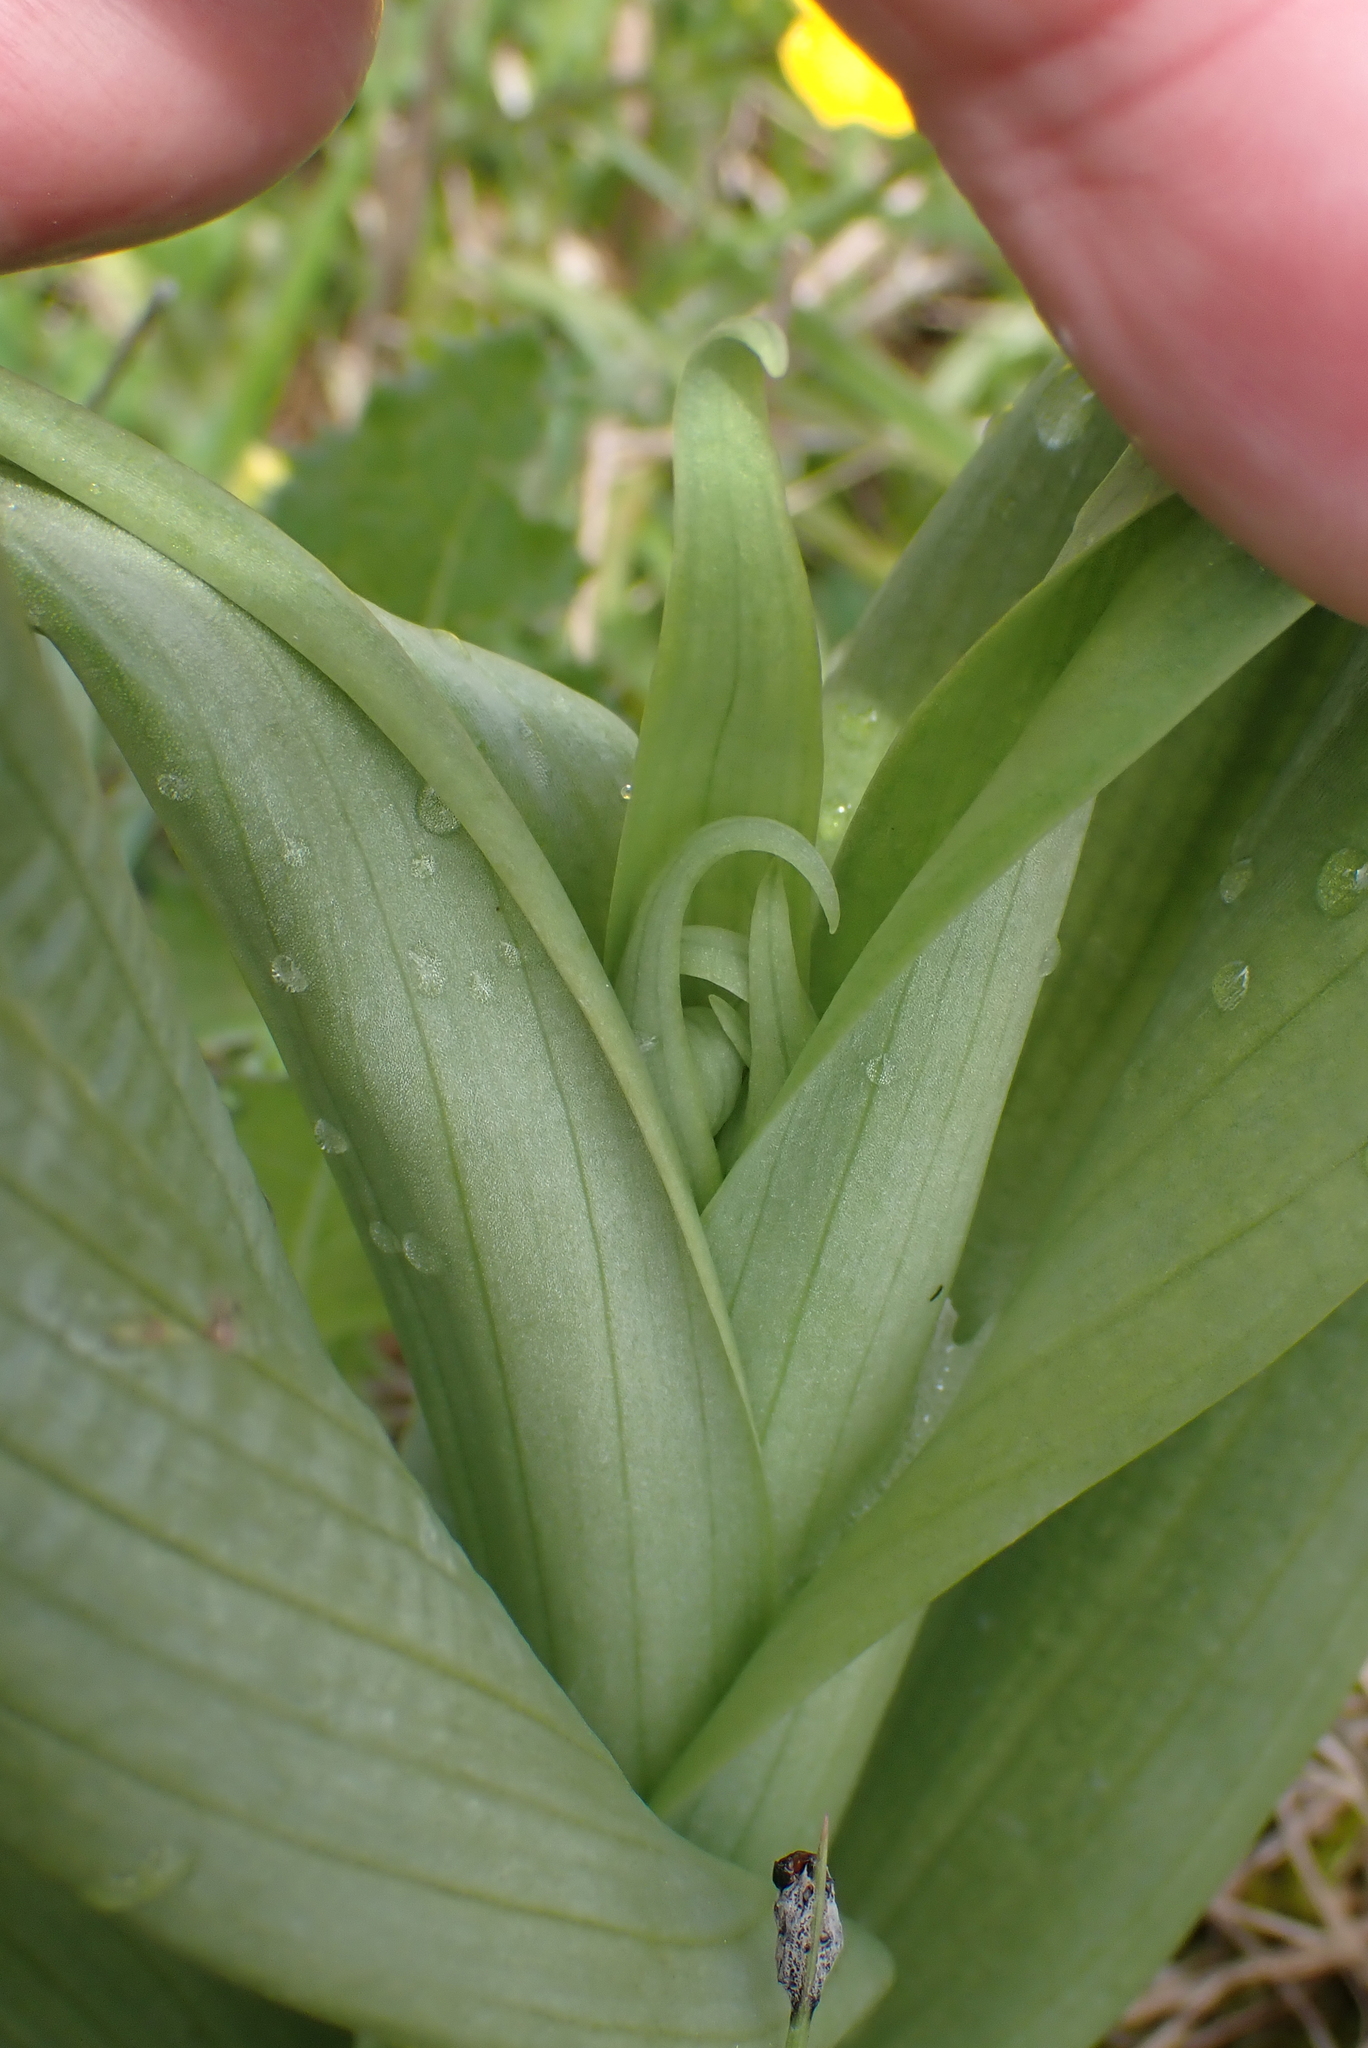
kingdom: Plantae
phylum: Tracheophyta
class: Liliopsida
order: Asparagales
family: Orchidaceae
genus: Himantoglossum
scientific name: Himantoglossum hircinum
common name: Lizard orchid
